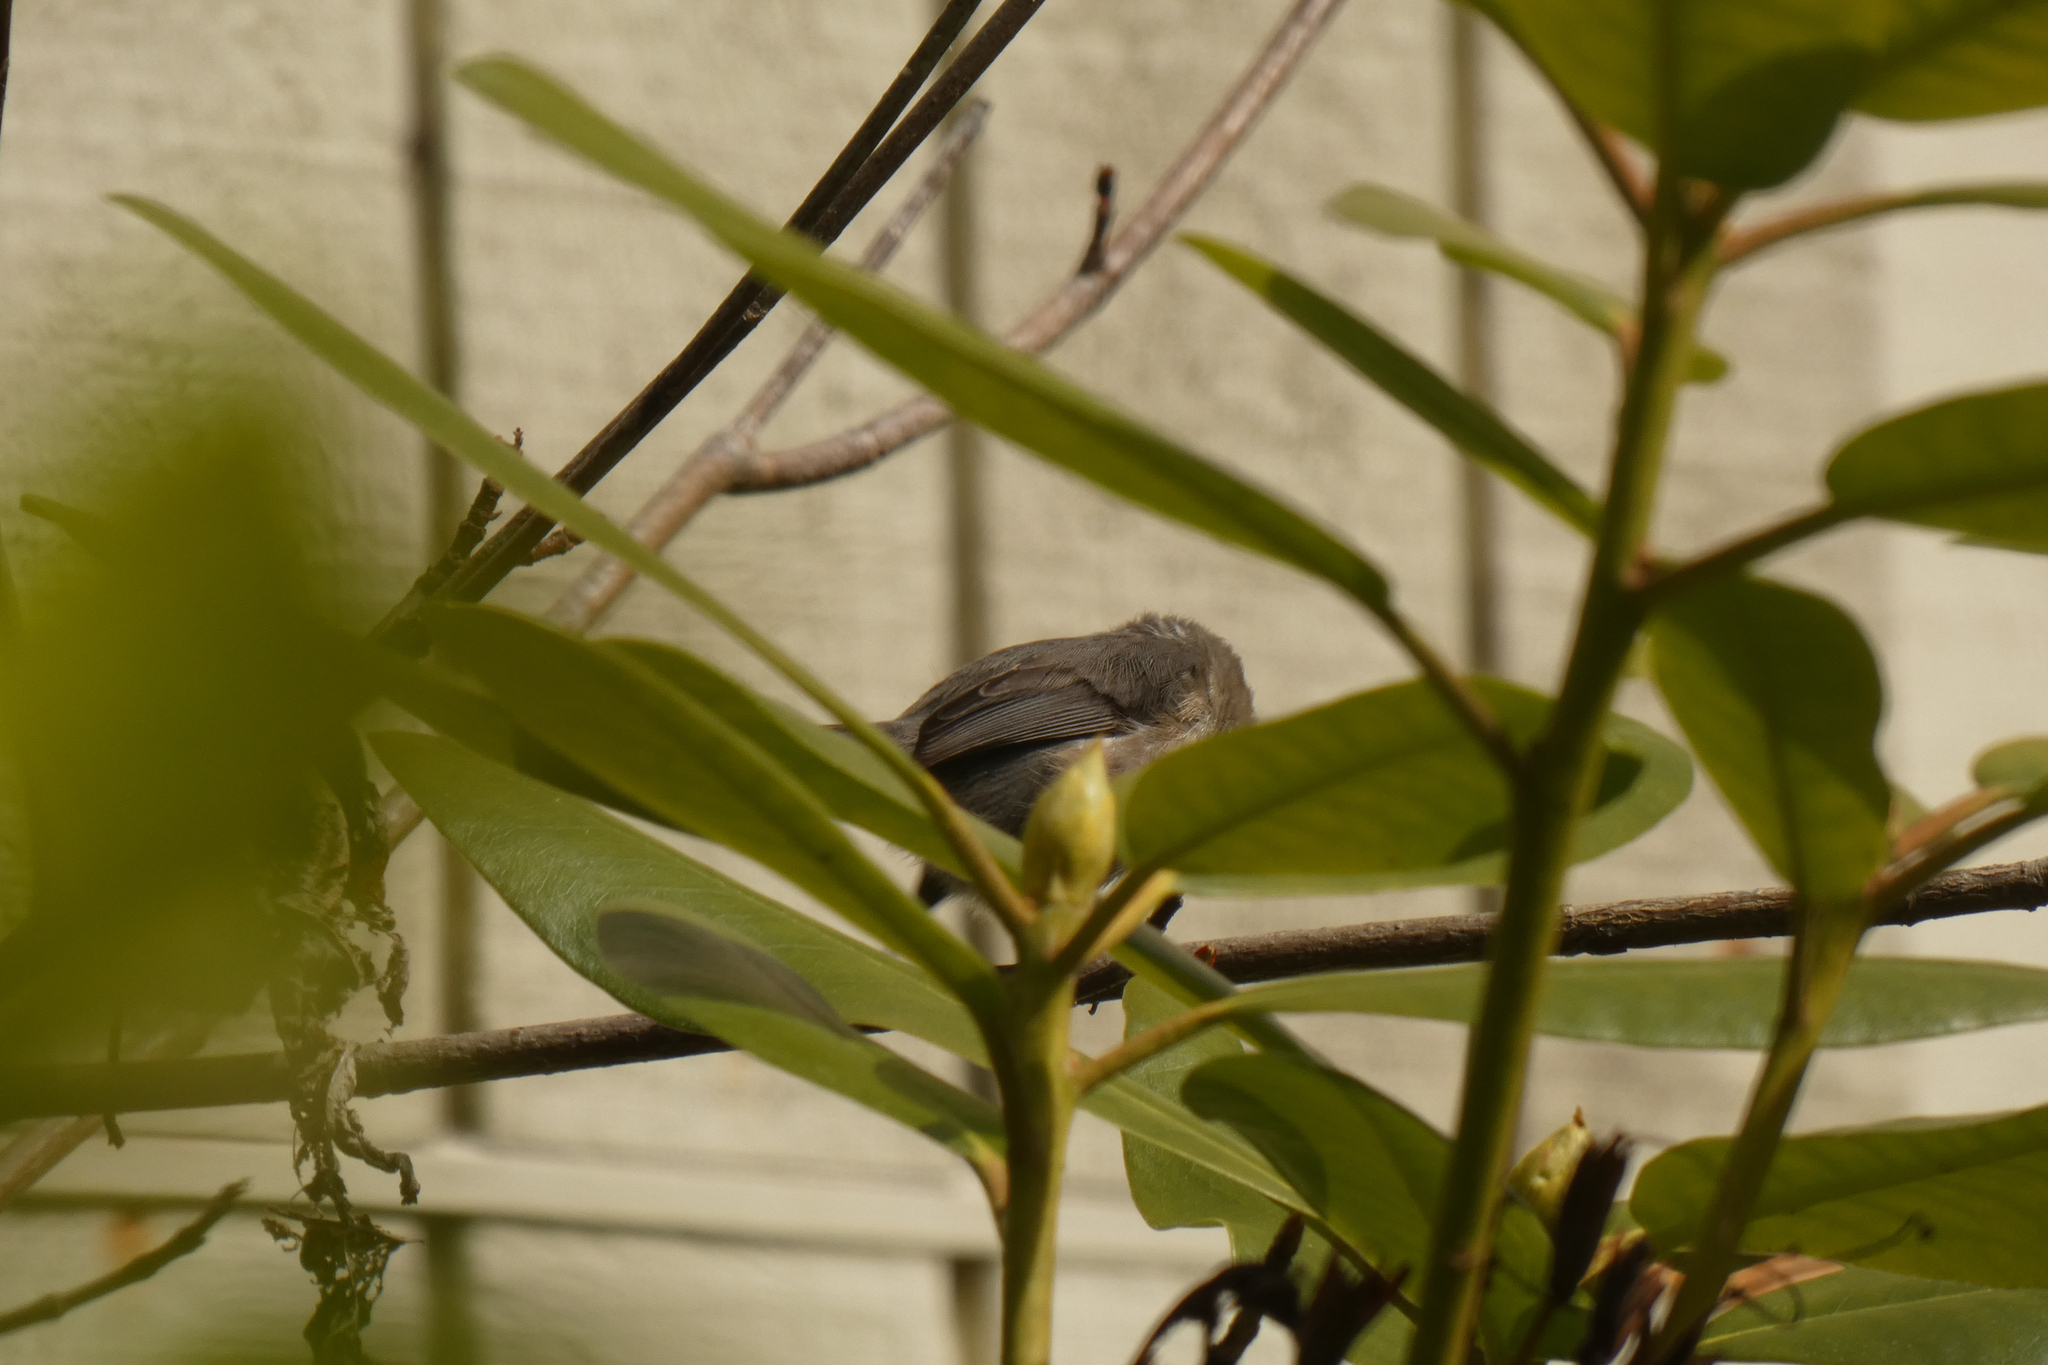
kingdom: Animalia
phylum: Chordata
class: Aves
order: Passeriformes
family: Aegithalidae
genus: Psaltriparus
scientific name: Psaltriparus minimus
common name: American bushtit
